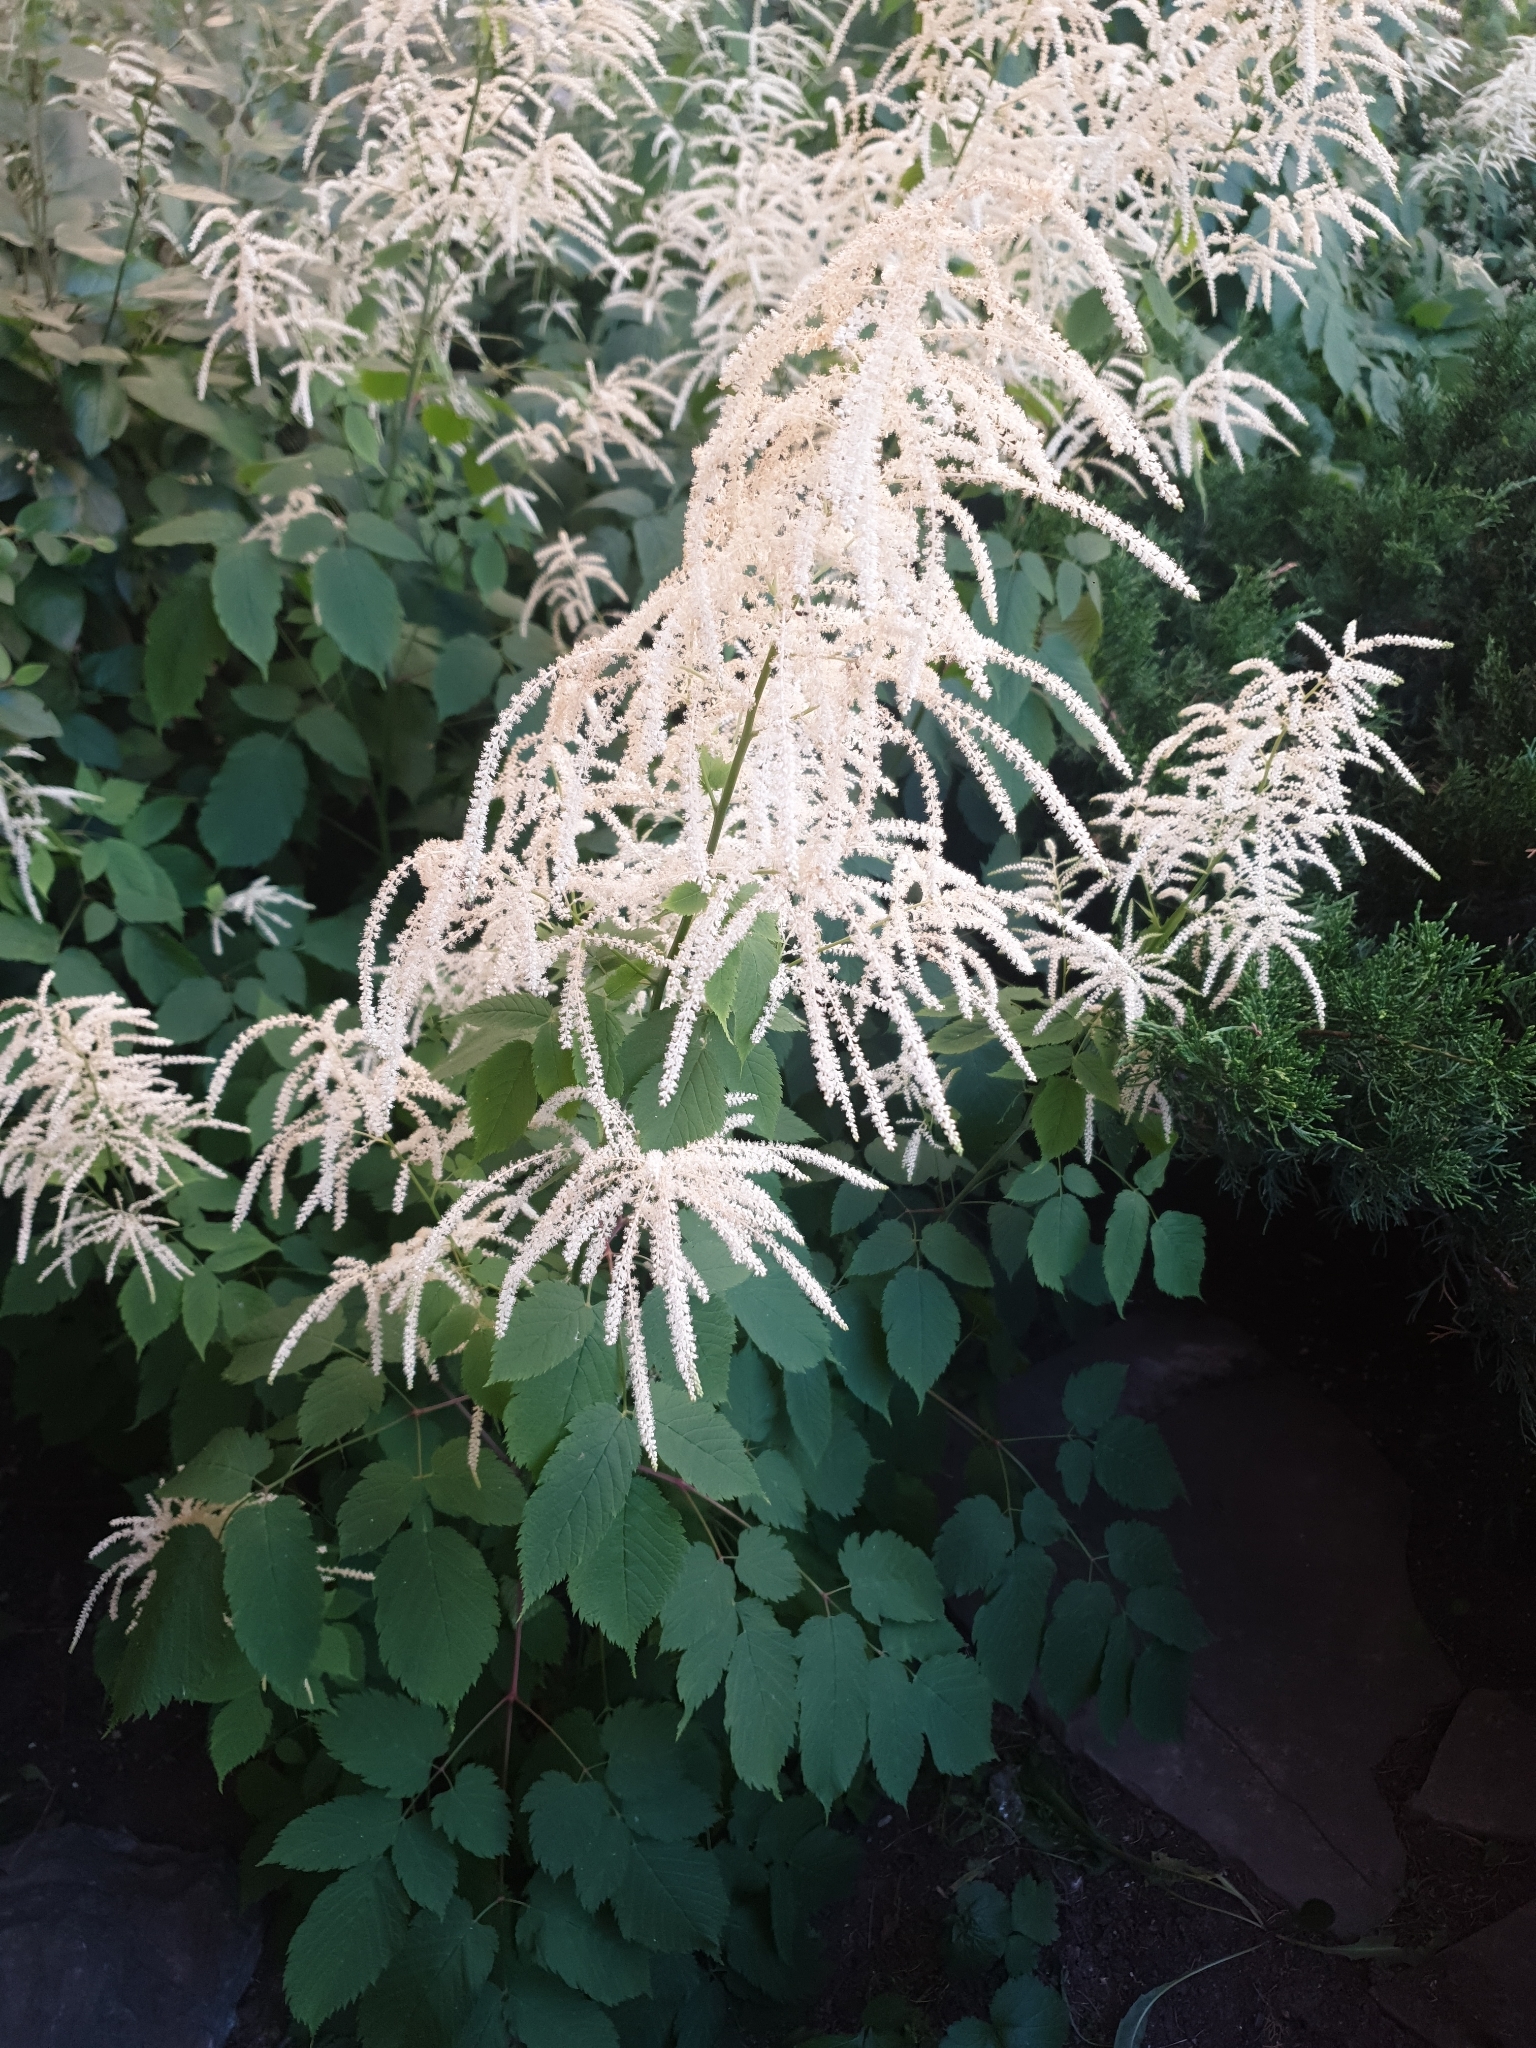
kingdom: Plantae
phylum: Tracheophyta
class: Magnoliopsida
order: Rosales
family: Rosaceae
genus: Aruncus
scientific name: Aruncus dioicus
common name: Buck's-beard
